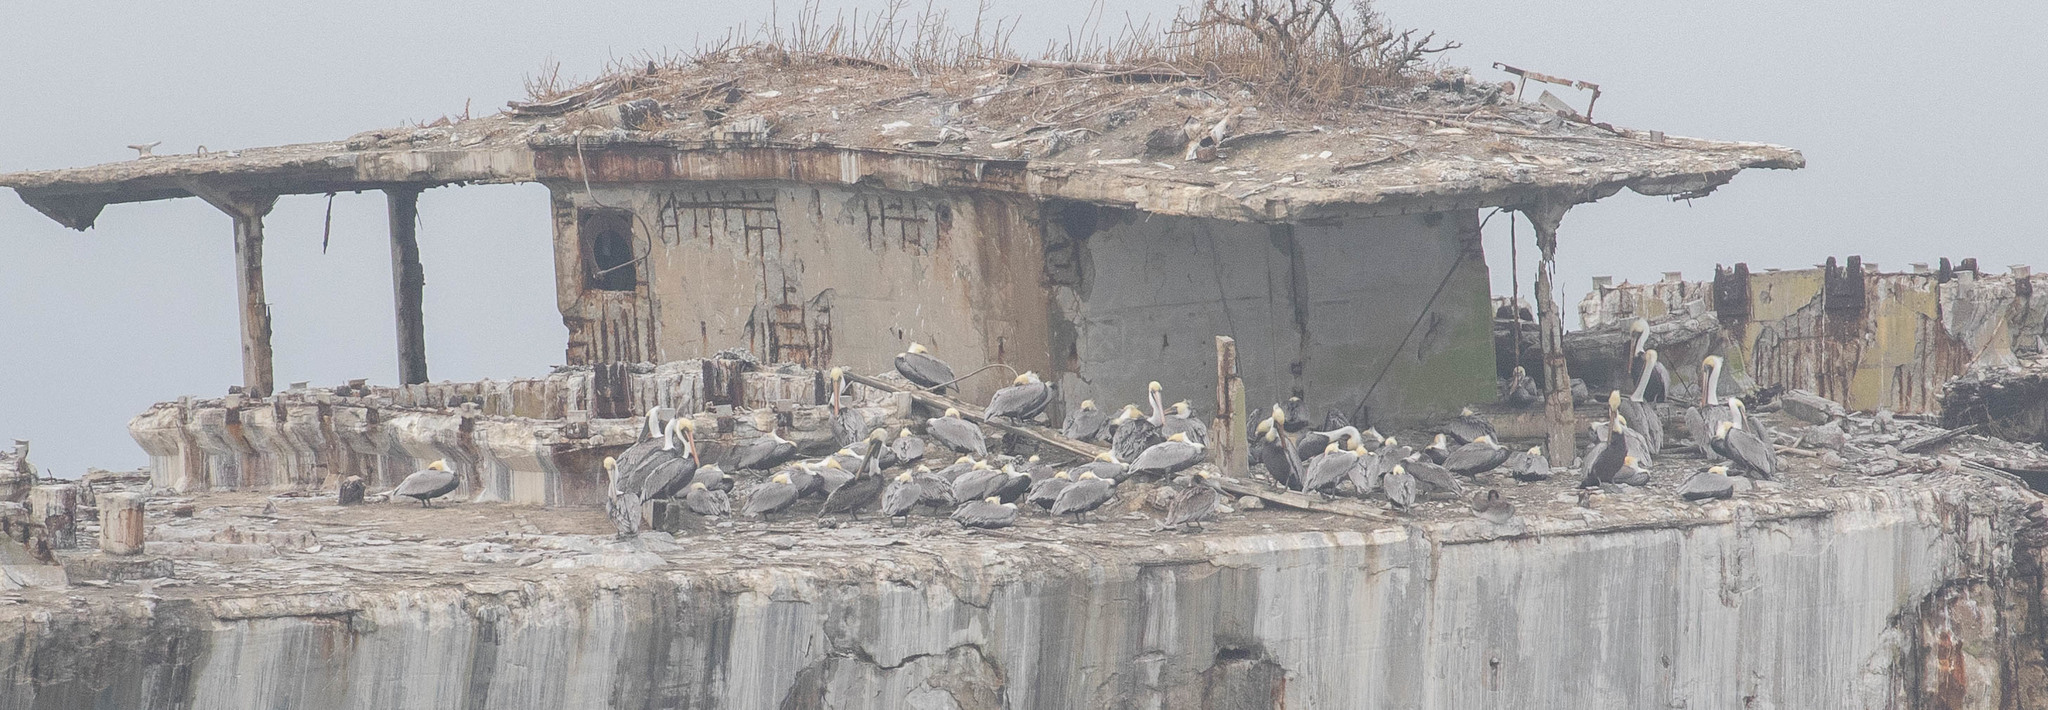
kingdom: Animalia
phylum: Chordata
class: Aves
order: Pelecaniformes
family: Pelecanidae
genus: Pelecanus
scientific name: Pelecanus occidentalis
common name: Brown pelican
